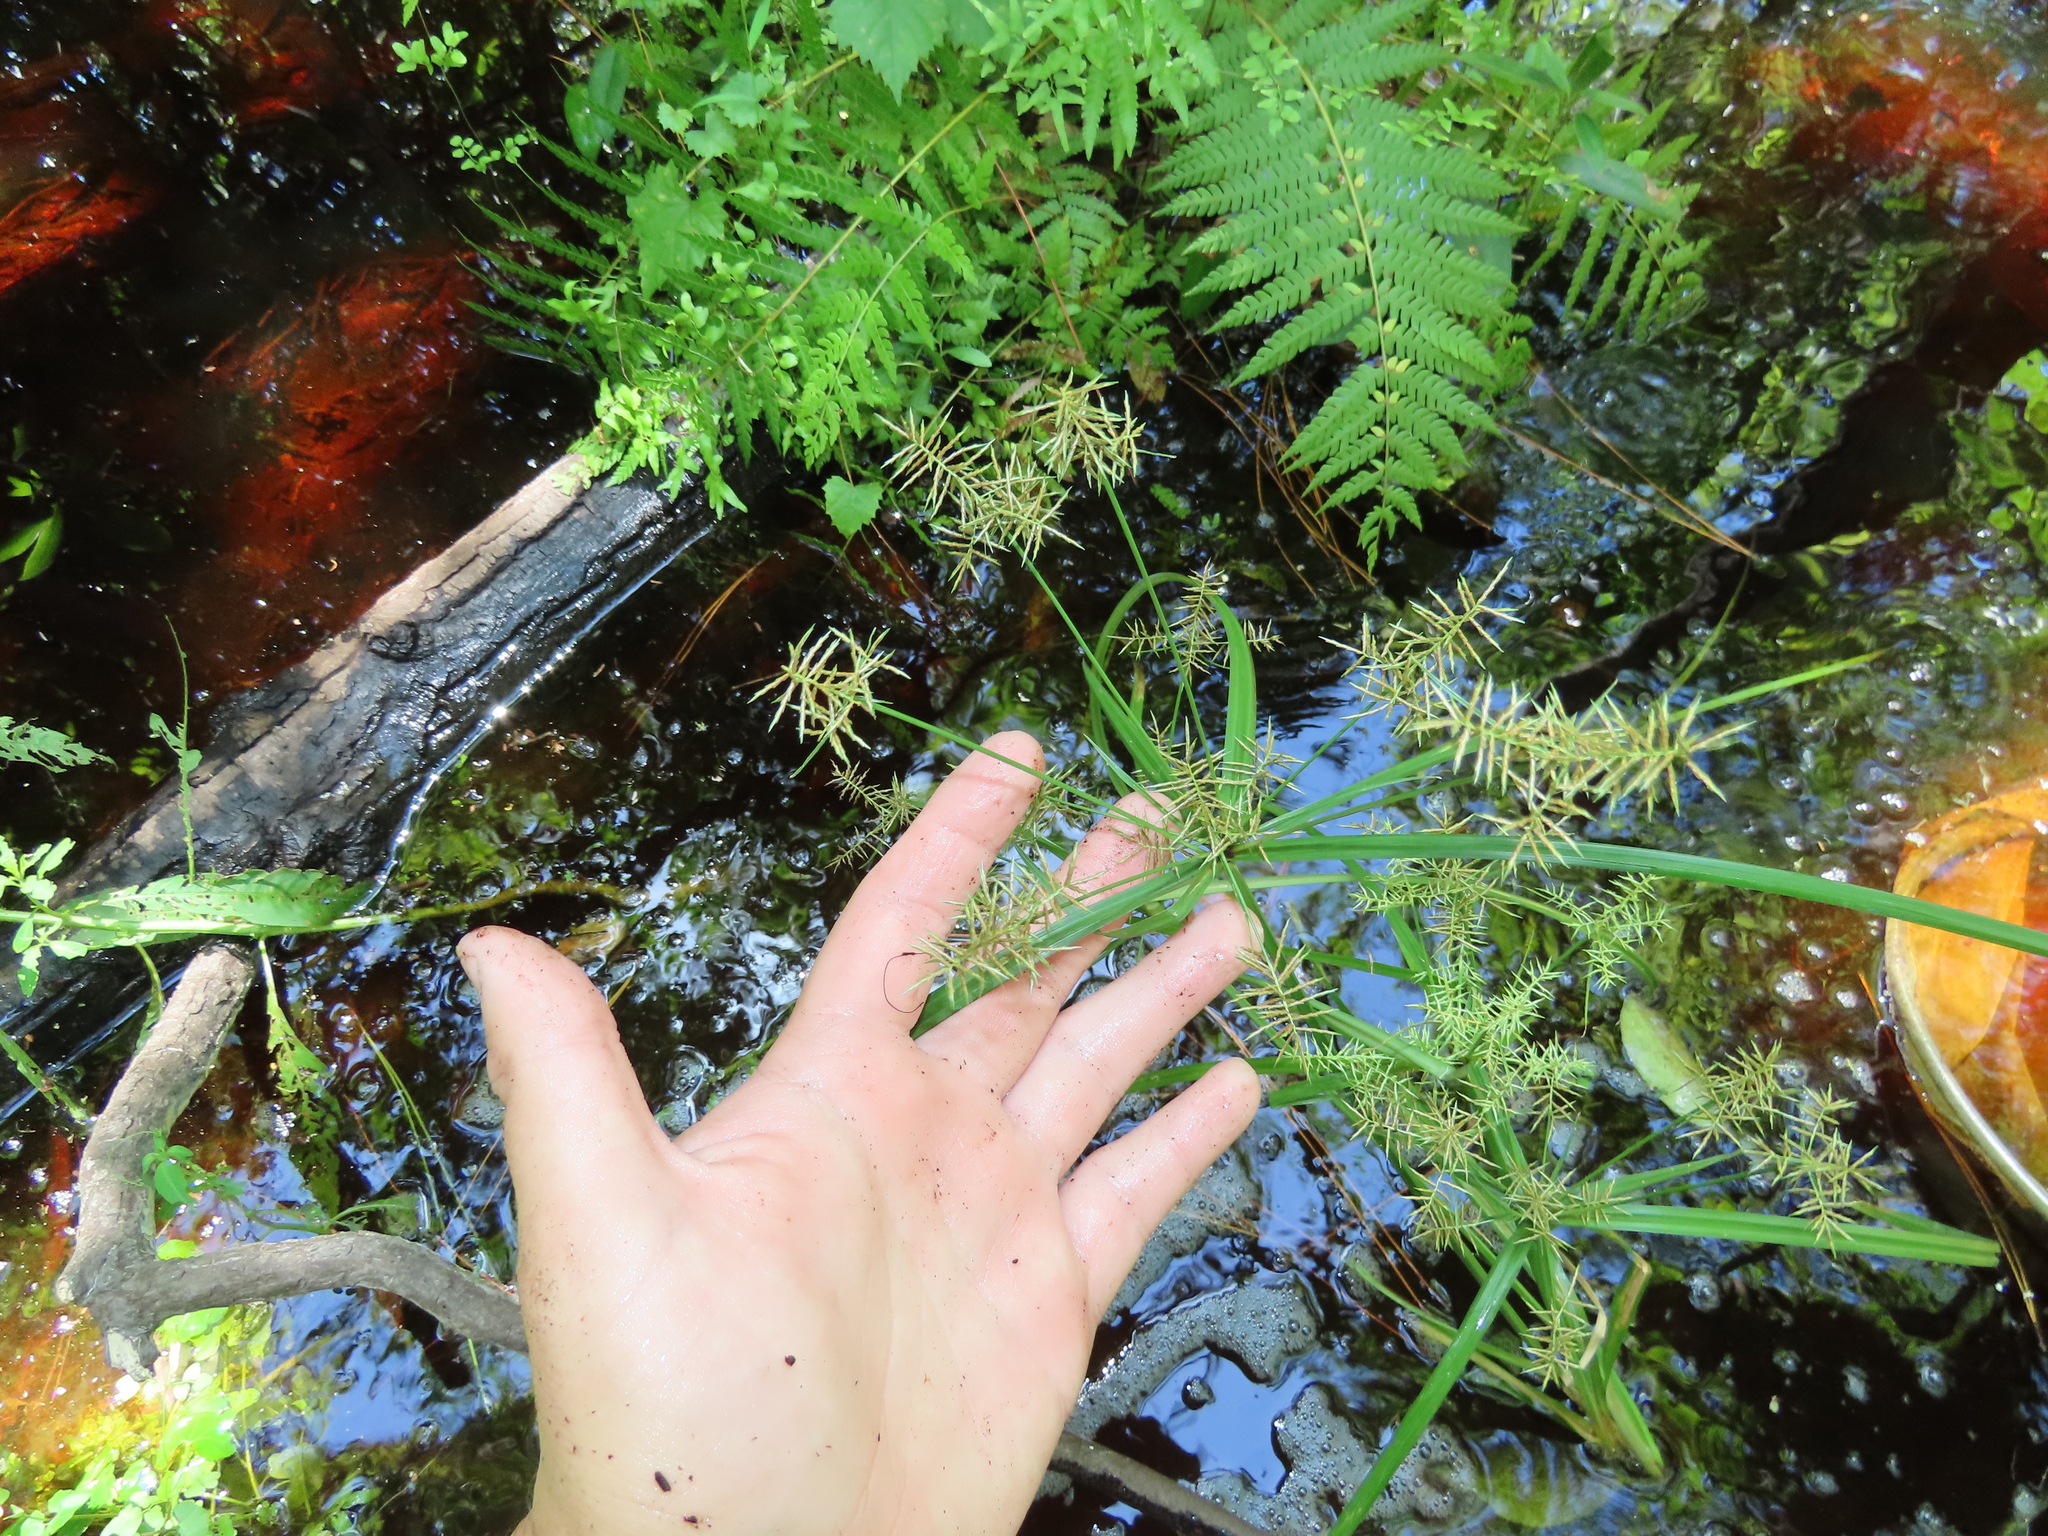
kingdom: Plantae
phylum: Tracheophyta
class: Liliopsida
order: Poales
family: Cyperaceae
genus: Cyperus
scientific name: Cyperus odoratus
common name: Fragrant flatsedge
